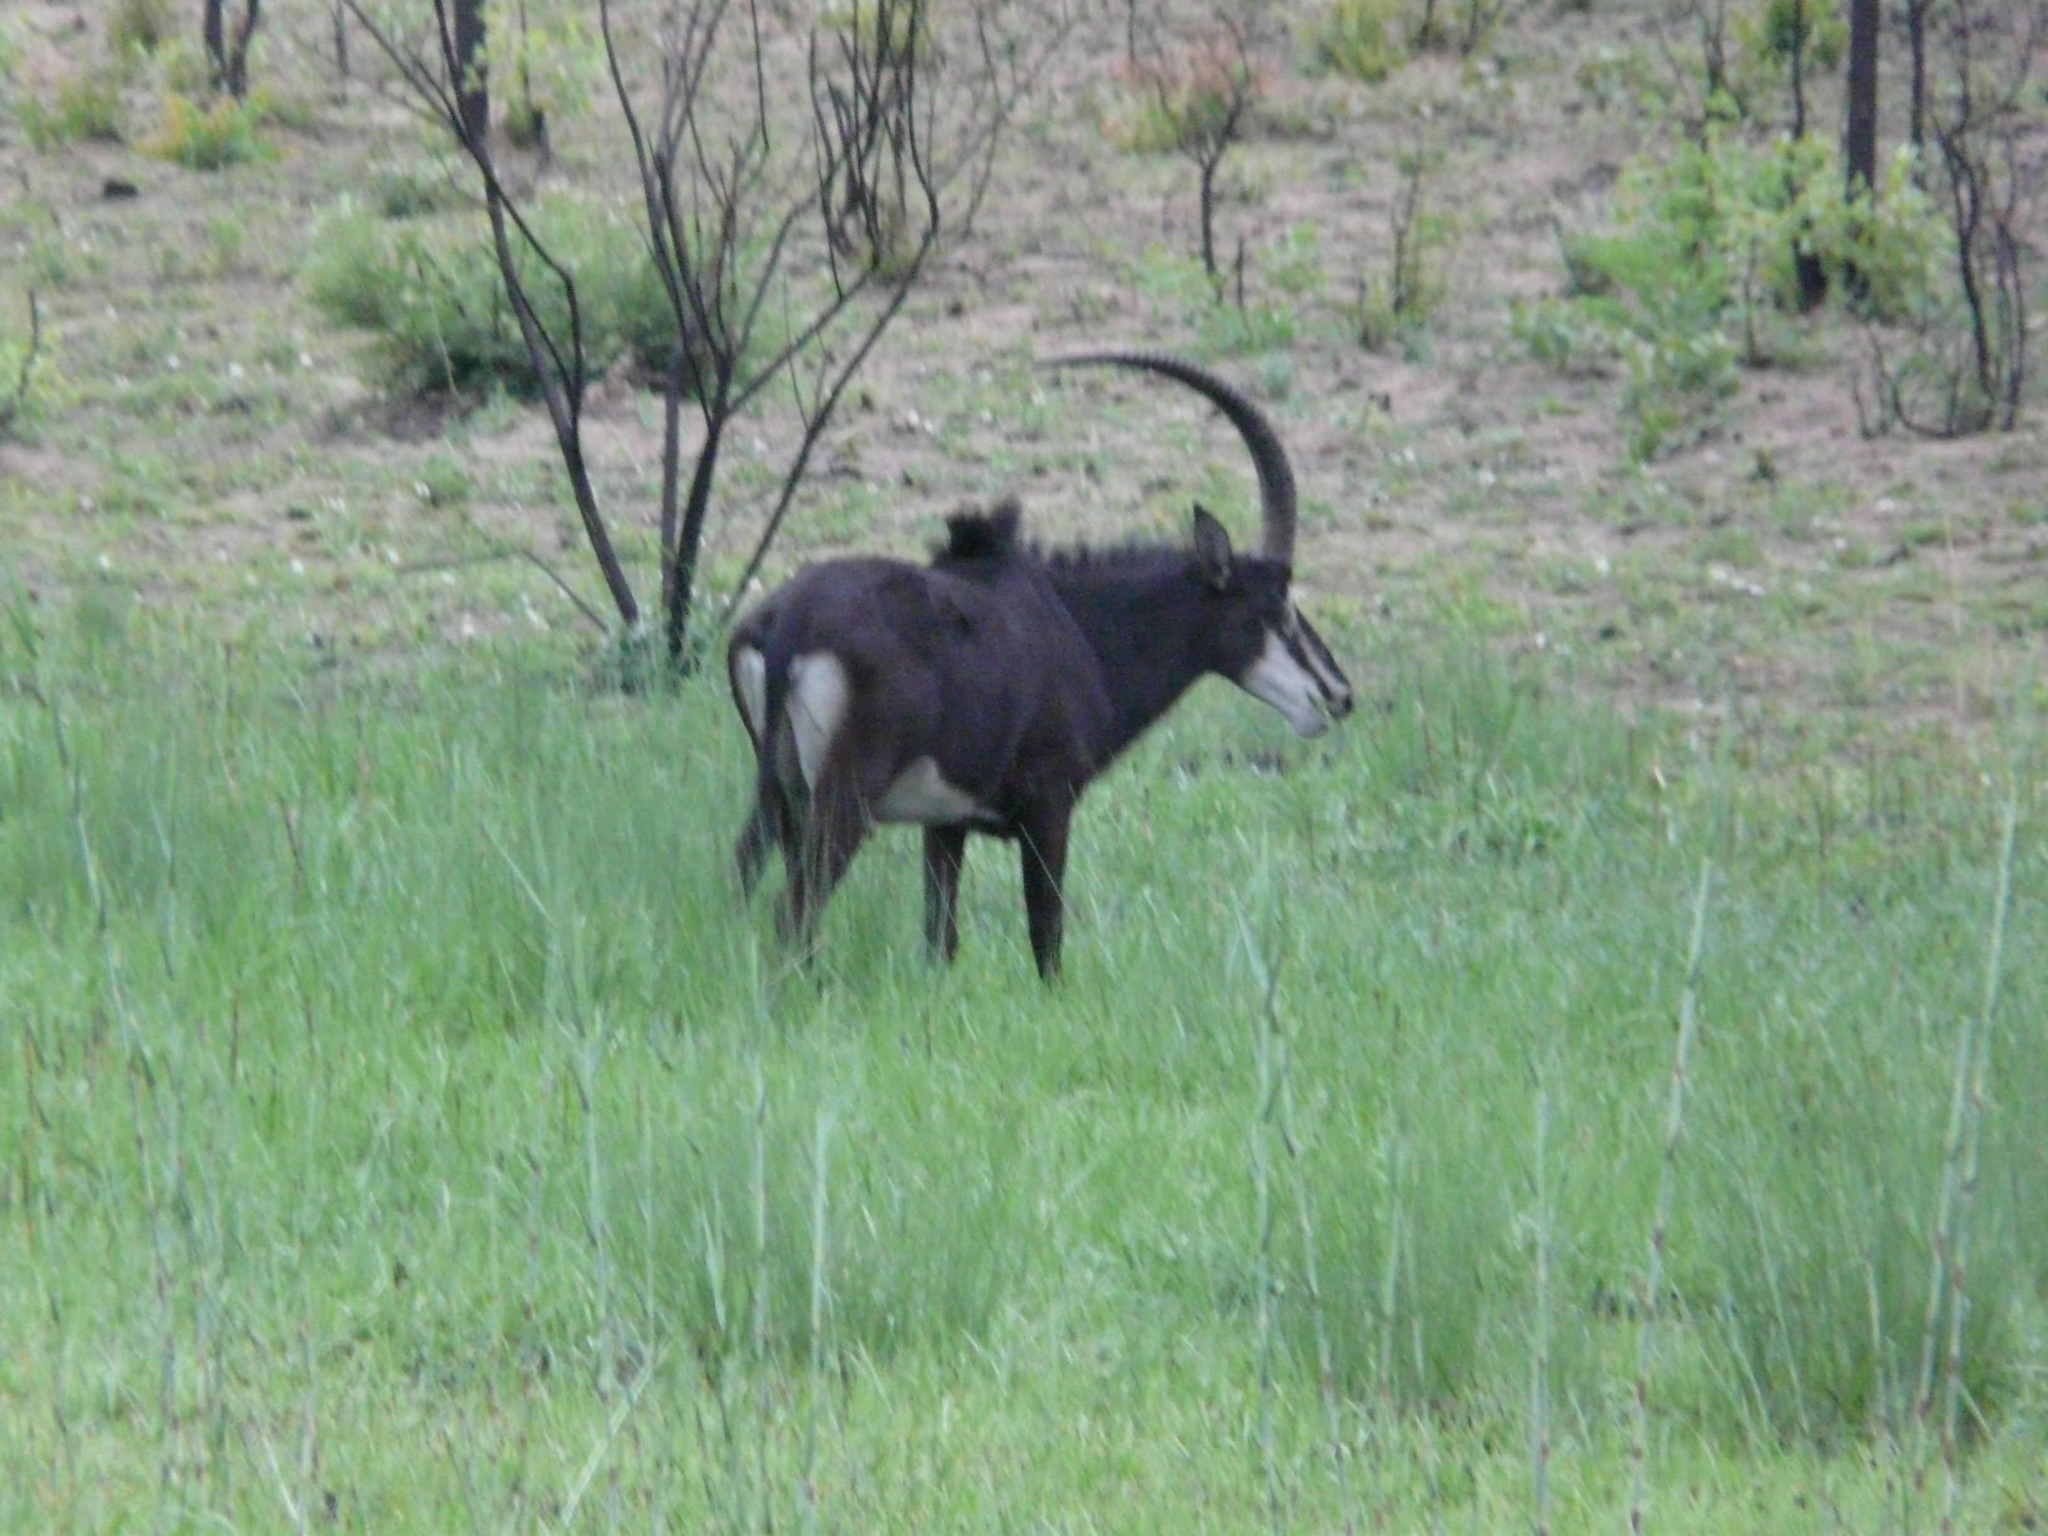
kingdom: Animalia
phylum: Chordata
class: Mammalia
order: Artiodactyla
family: Bovidae
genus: Hippotragus
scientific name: Hippotragus niger
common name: Sable antelope
